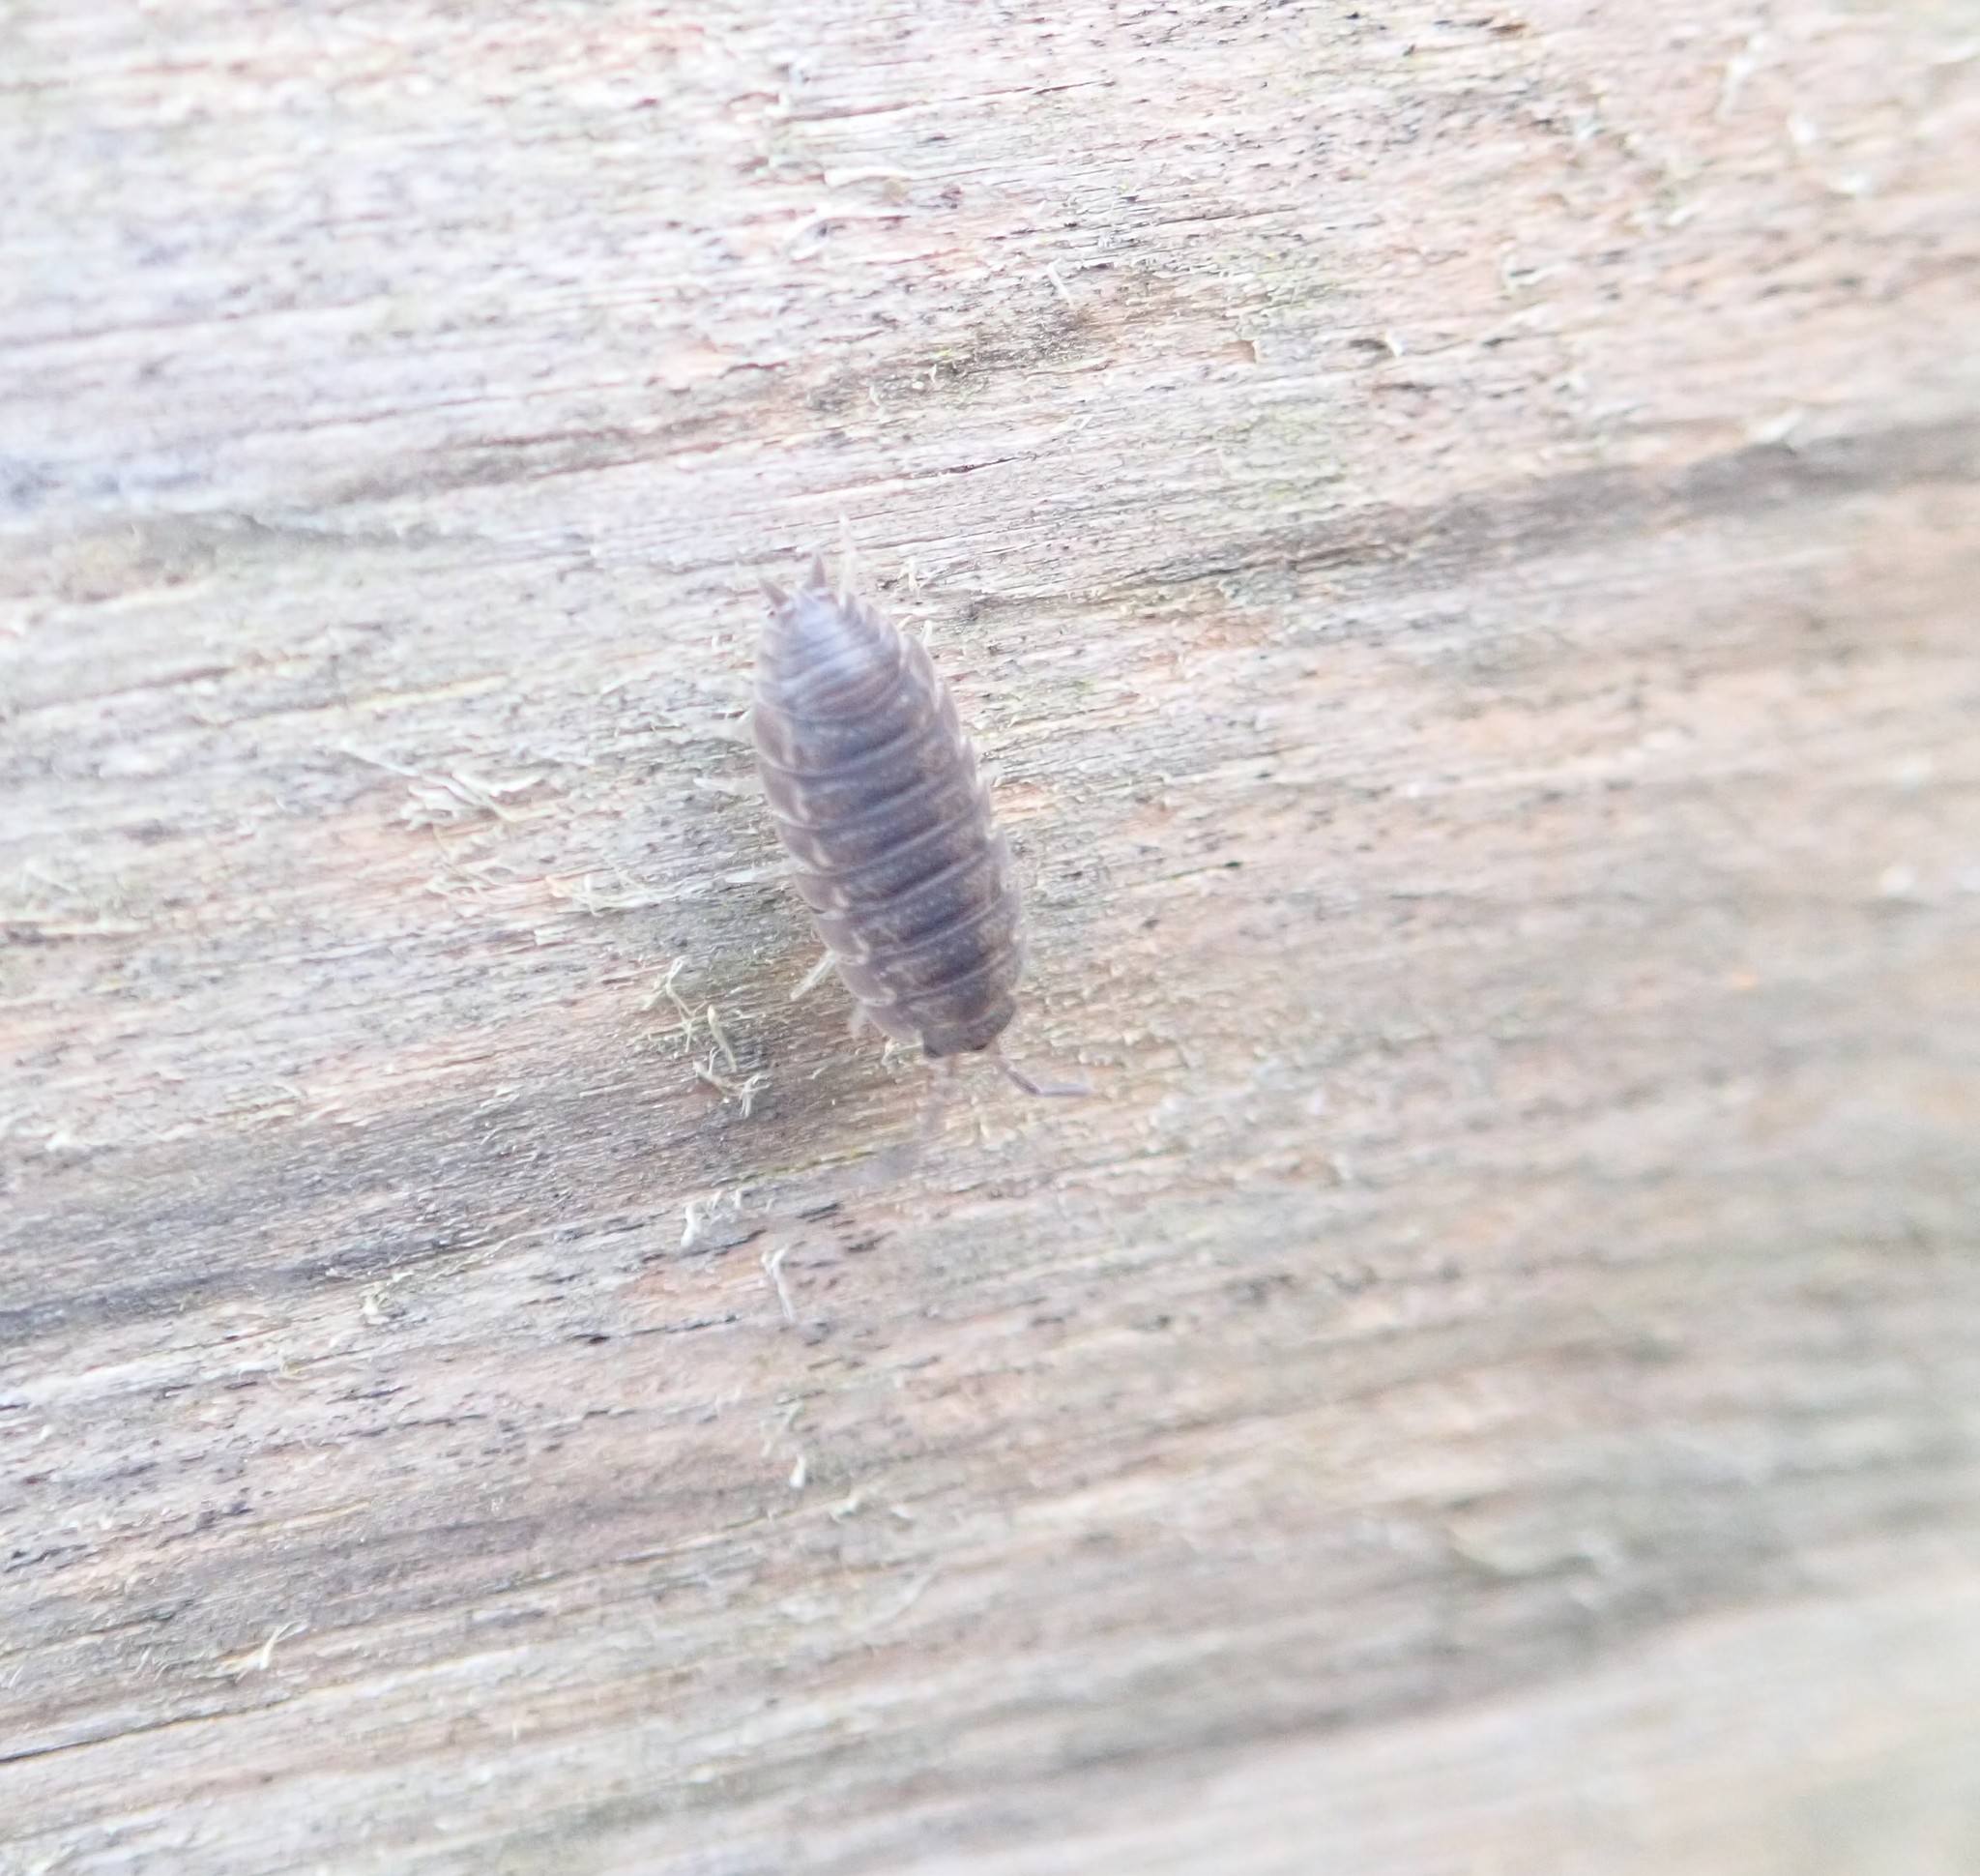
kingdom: Animalia
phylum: Arthropoda
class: Malacostraca
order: Isopoda
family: Porcellionidae
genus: Porcellio
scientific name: Porcellio scaber
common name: Common rough woodlouse
